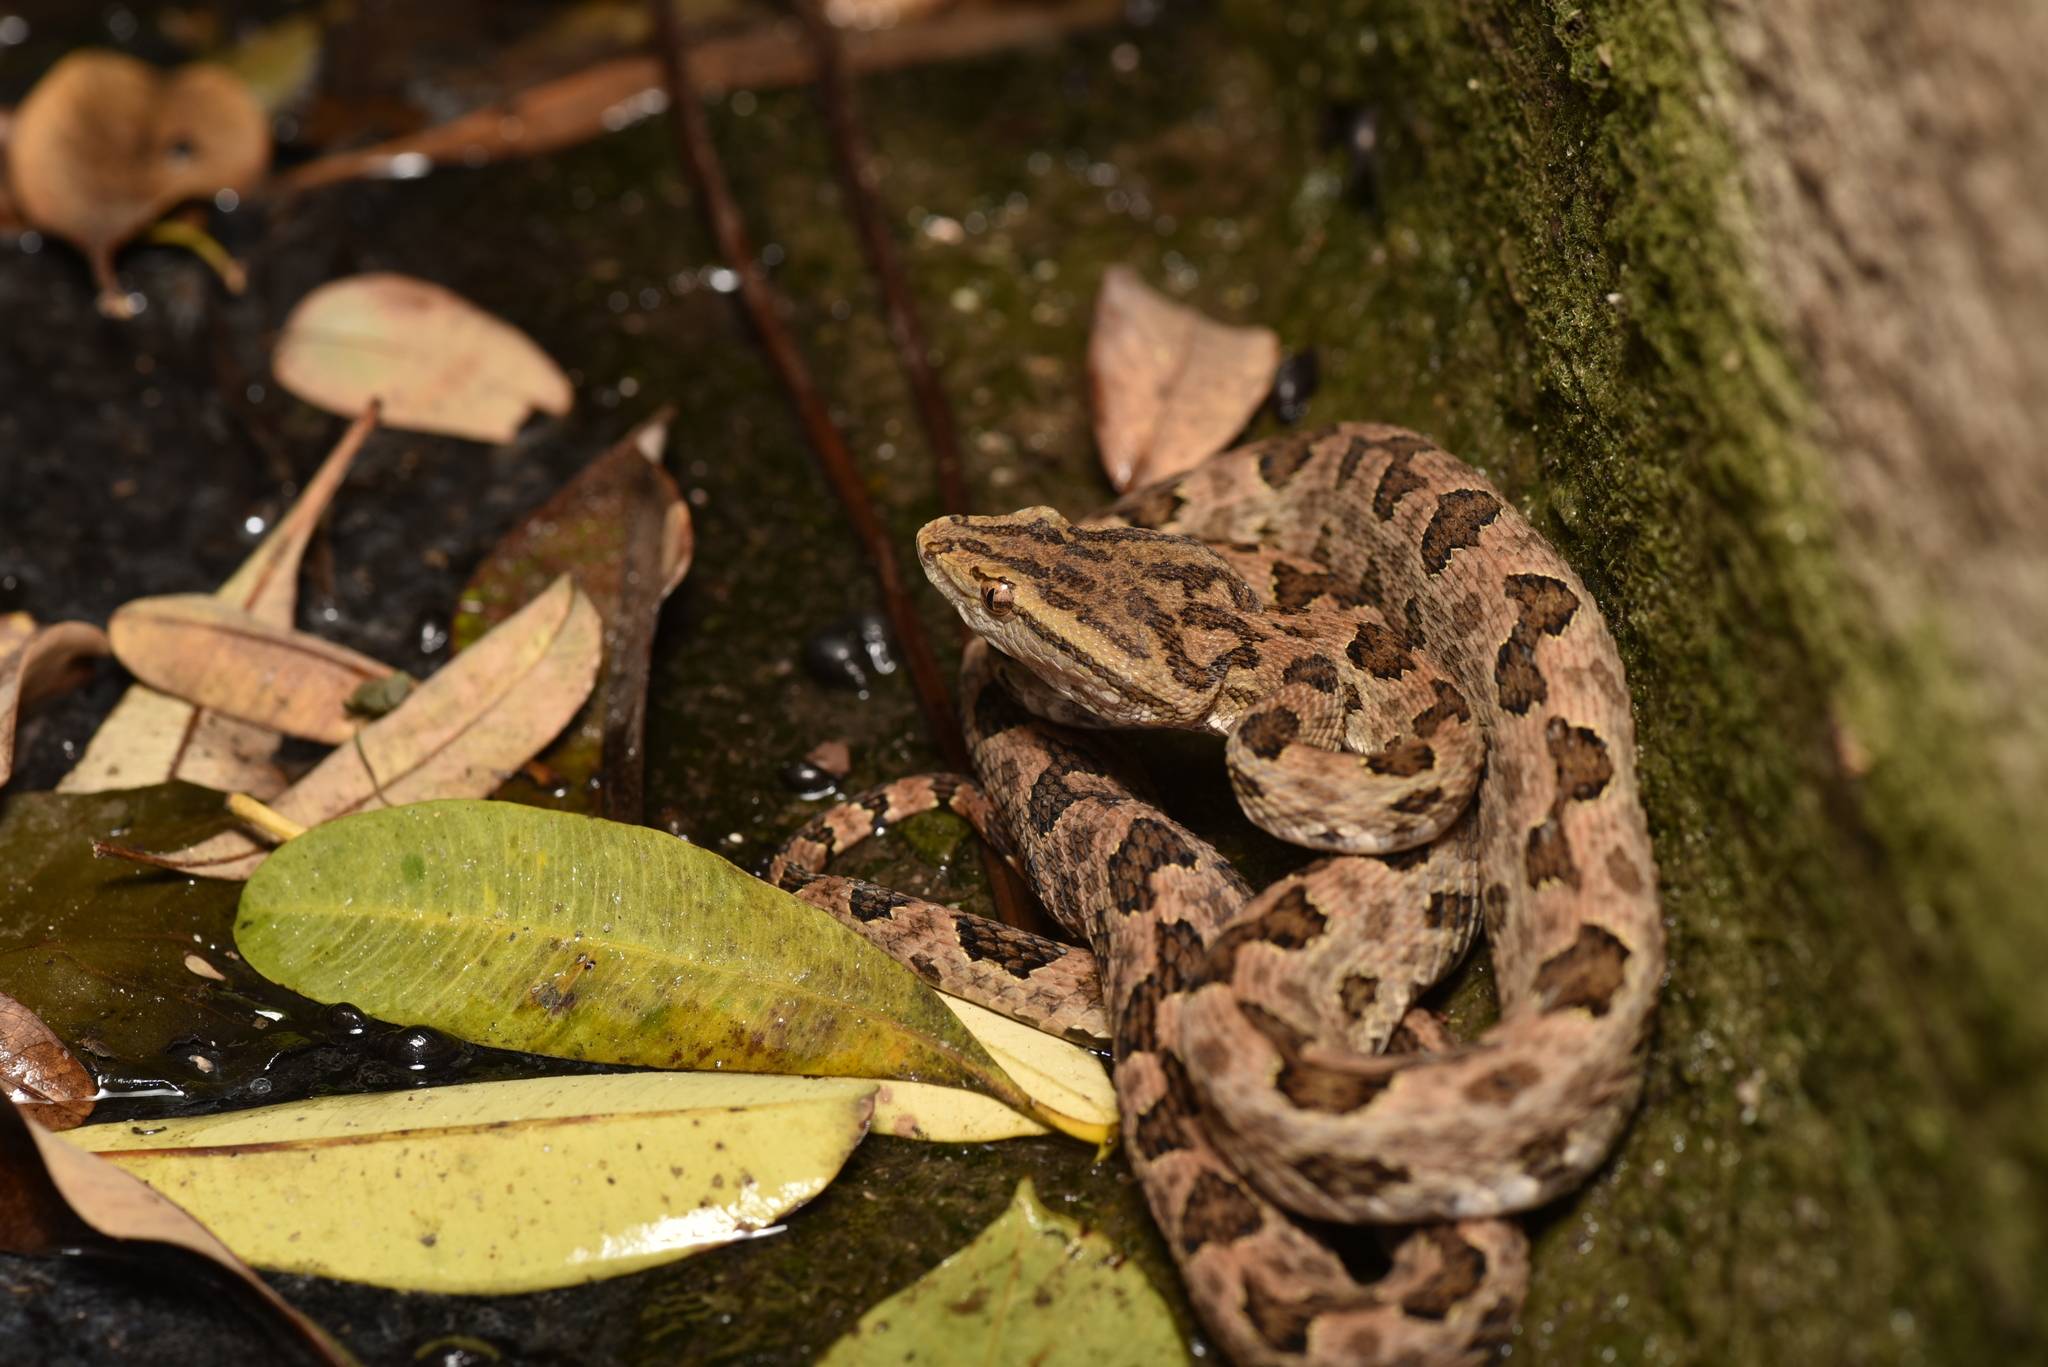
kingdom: Animalia
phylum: Chordata
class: Squamata
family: Viperidae
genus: Protobothrops
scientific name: Protobothrops mucrosquamatus
